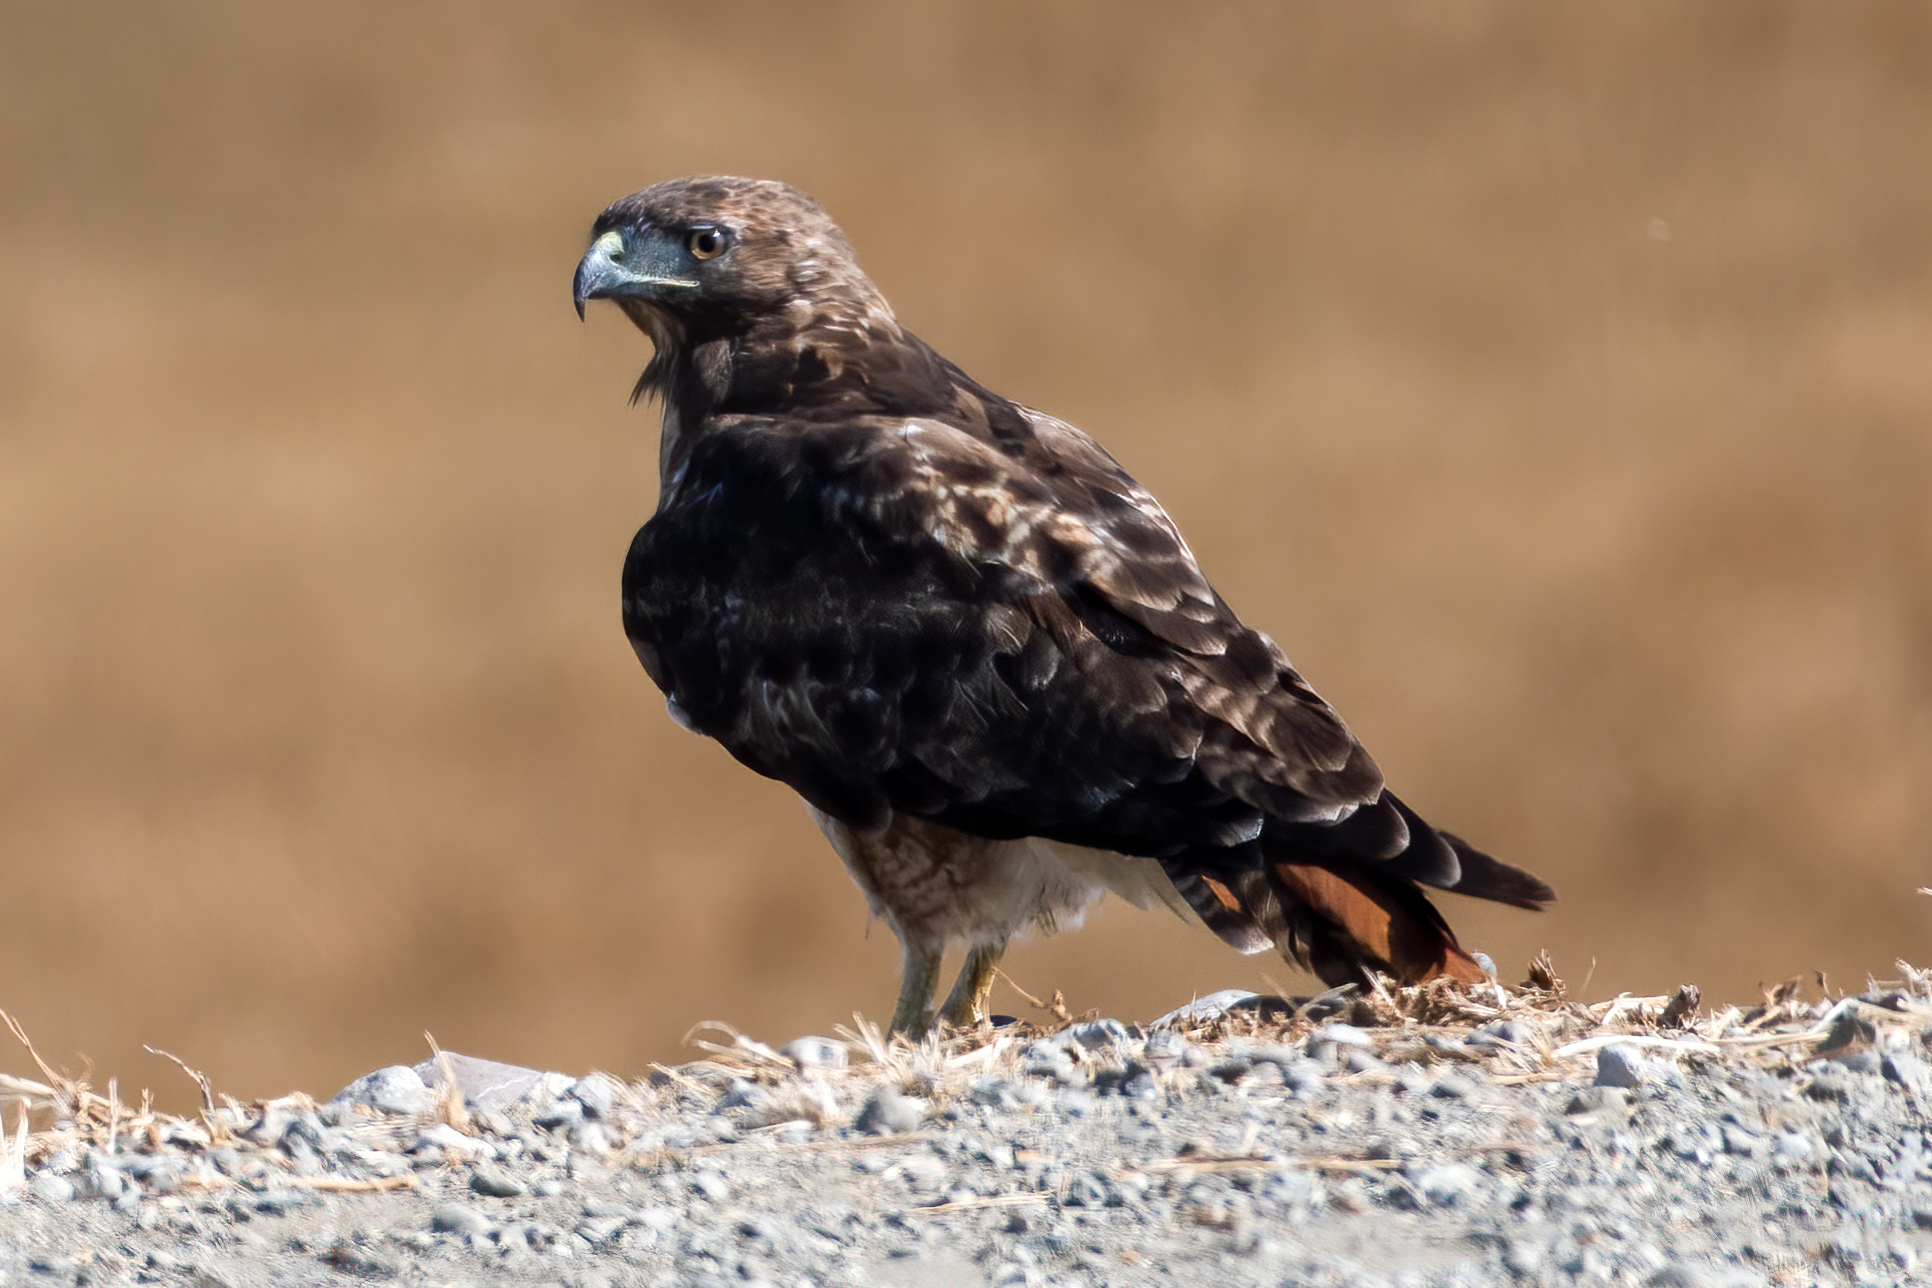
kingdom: Animalia
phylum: Chordata
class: Aves
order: Accipitriformes
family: Accipitridae
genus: Buteo
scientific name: Buteo jamaicensis
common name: Red-tailed hawk
